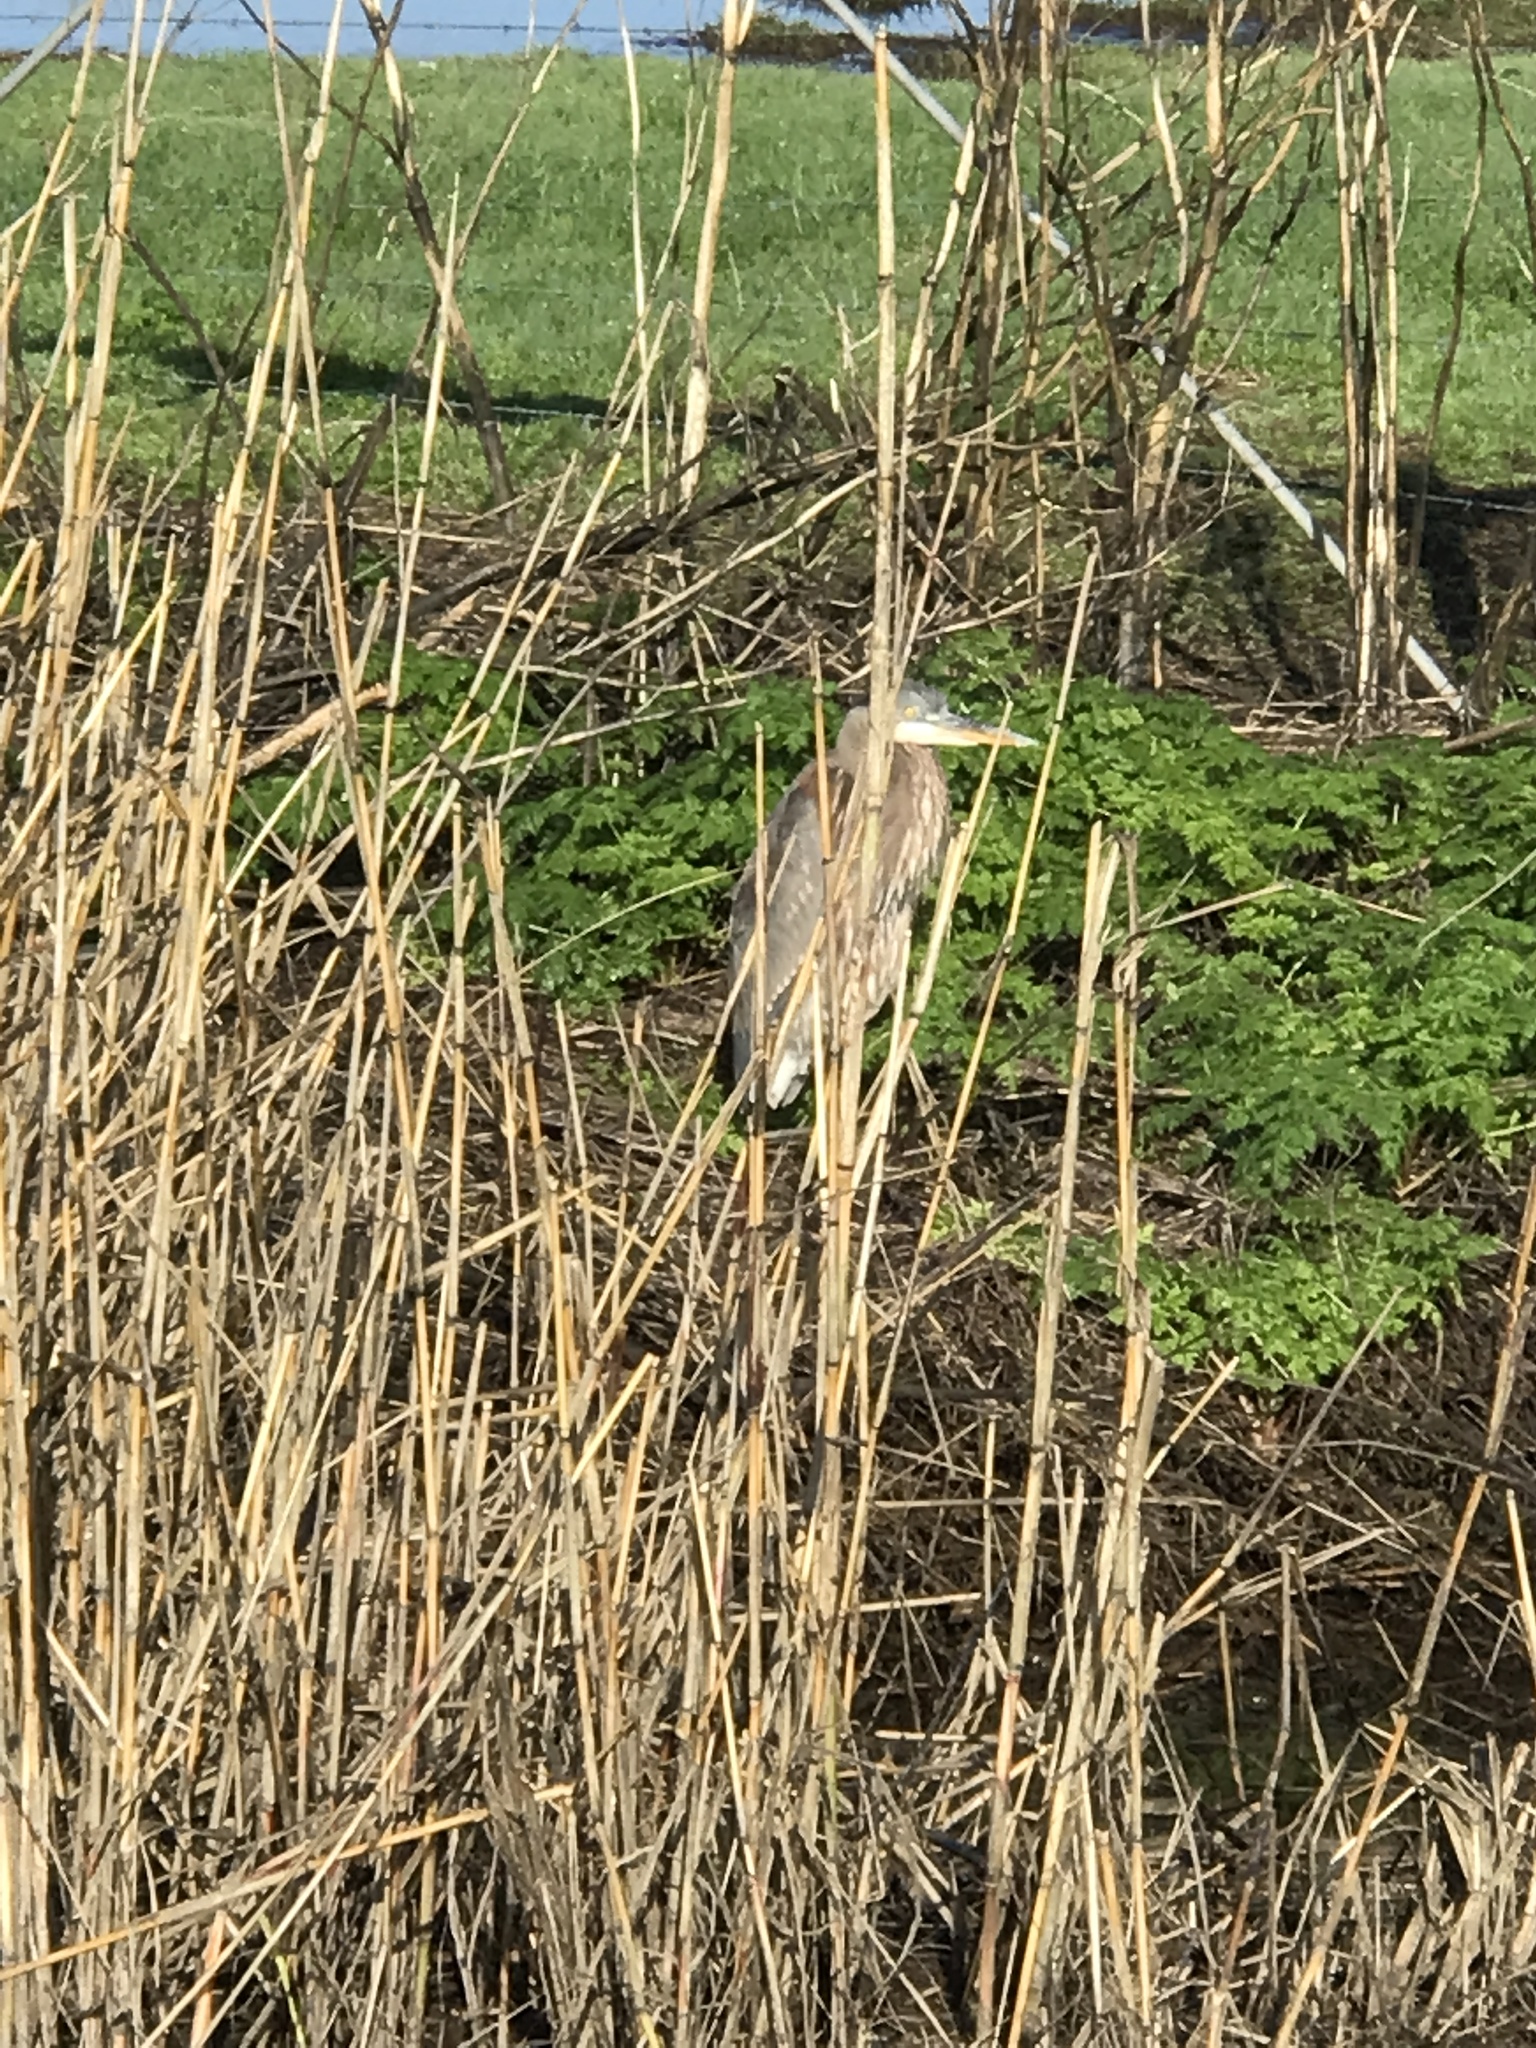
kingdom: Animalia
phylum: Chordata
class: Aves
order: Pelecaniformes
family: Ardeidae
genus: Ardea
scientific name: Ardea herodias
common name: Great blue heron
